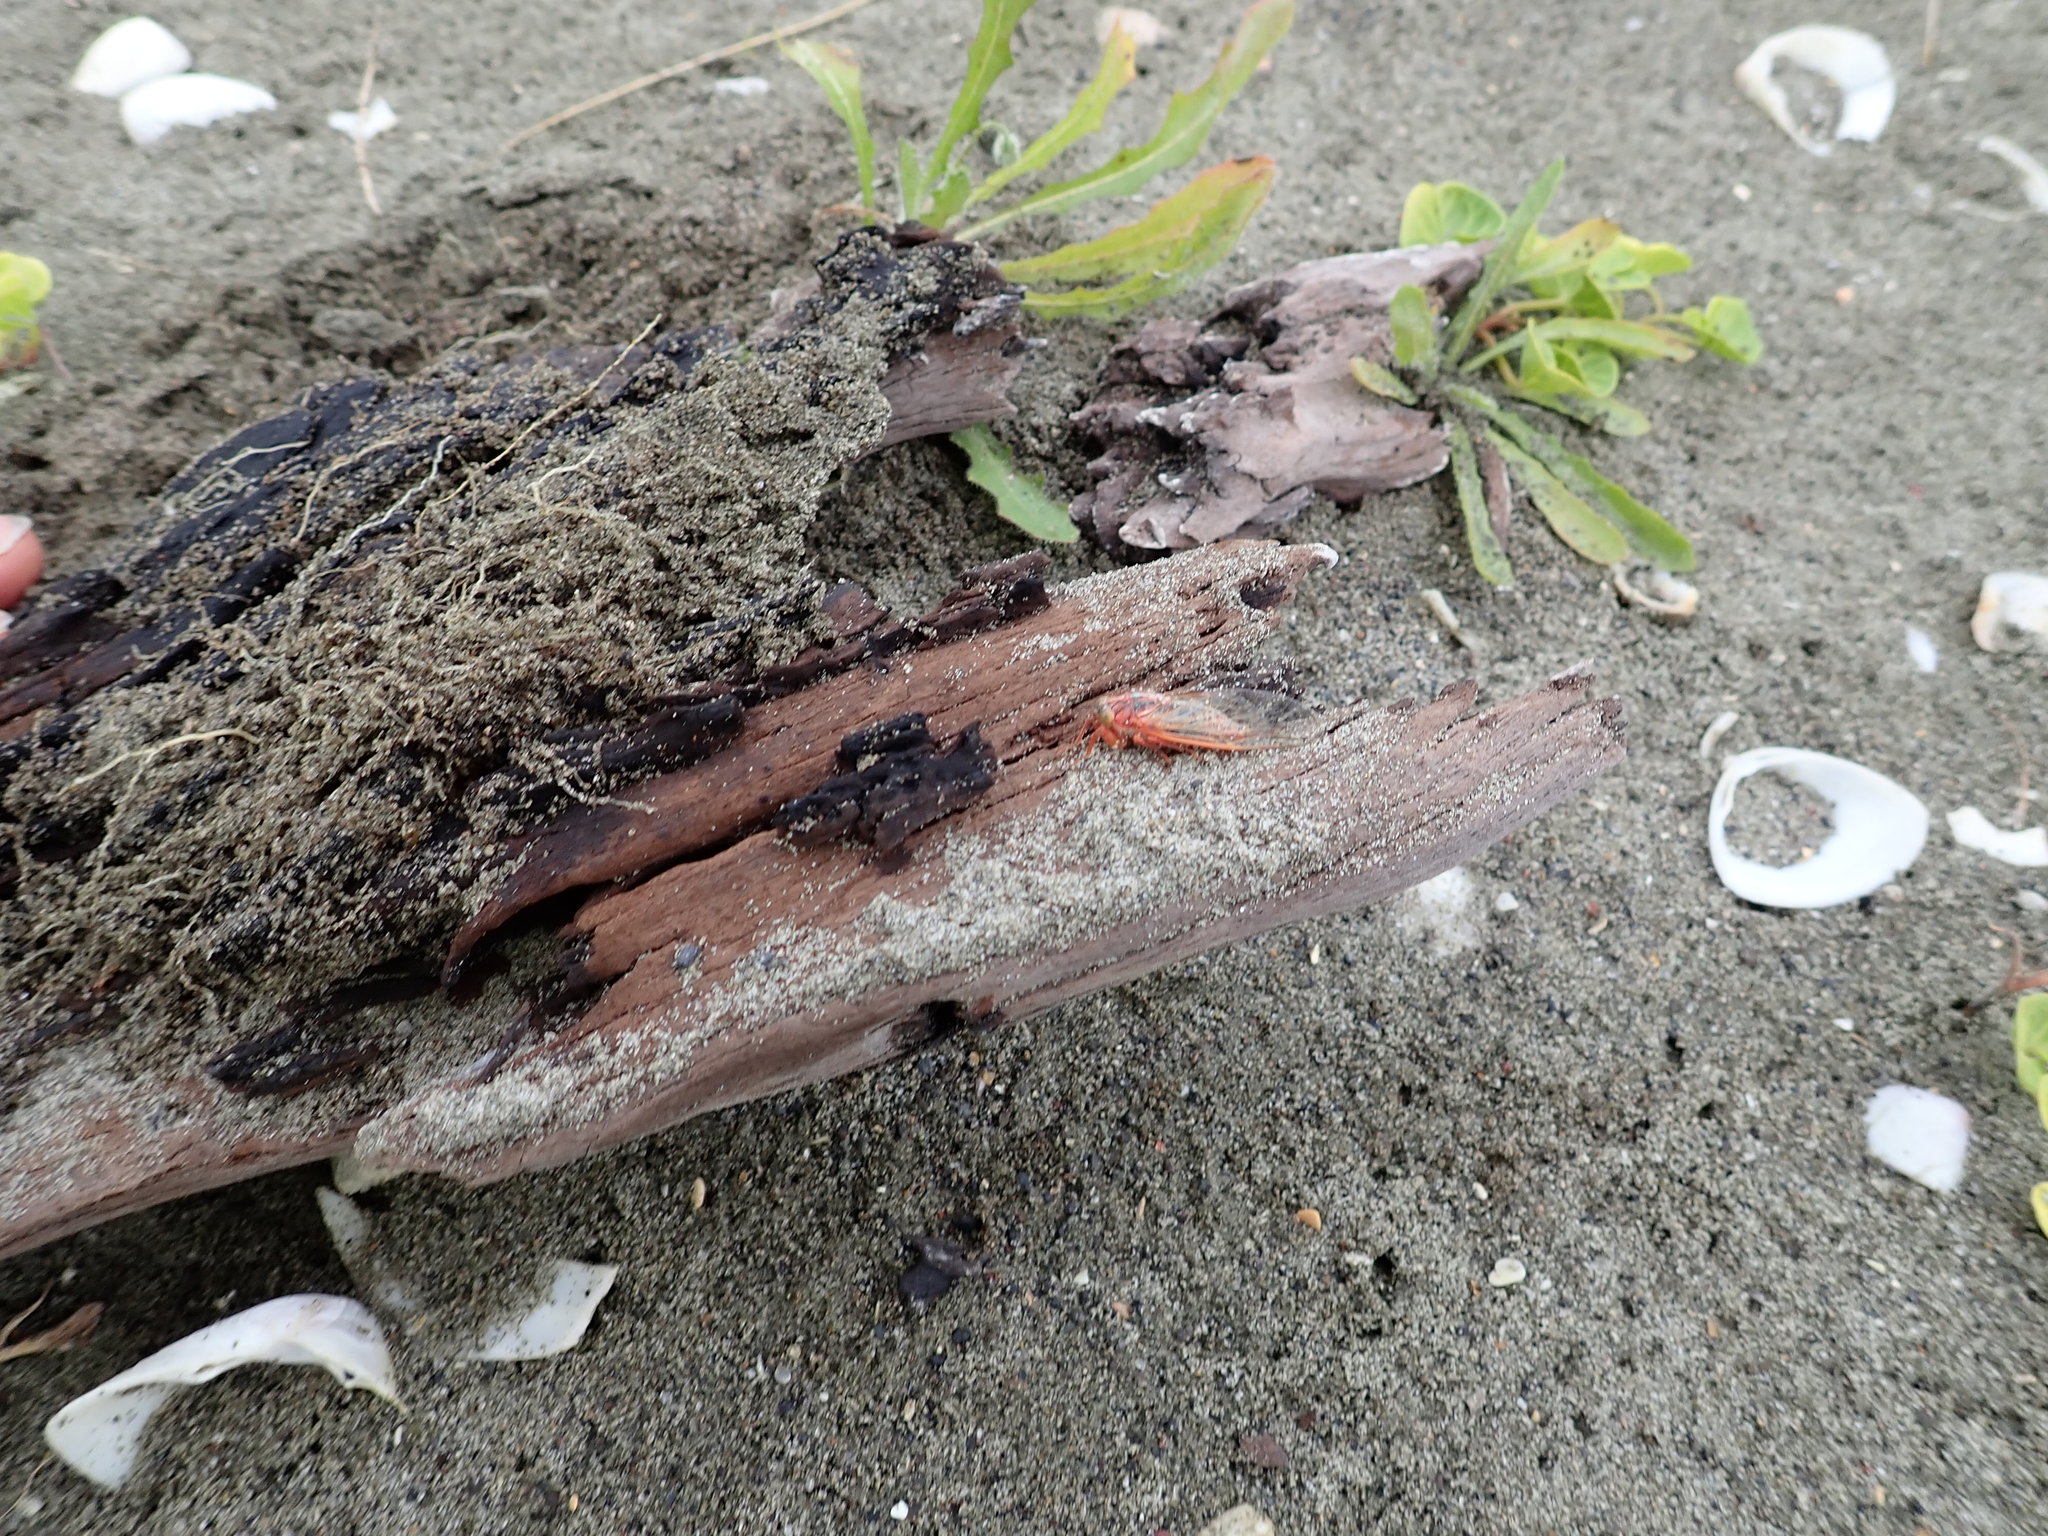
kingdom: Animalia
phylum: Arthropoda
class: Insecta
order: Hemiptera
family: Cicadidae
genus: Rhodopsalta
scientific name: Rhodopsalta leptomera
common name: Sand dune redtail cicada
